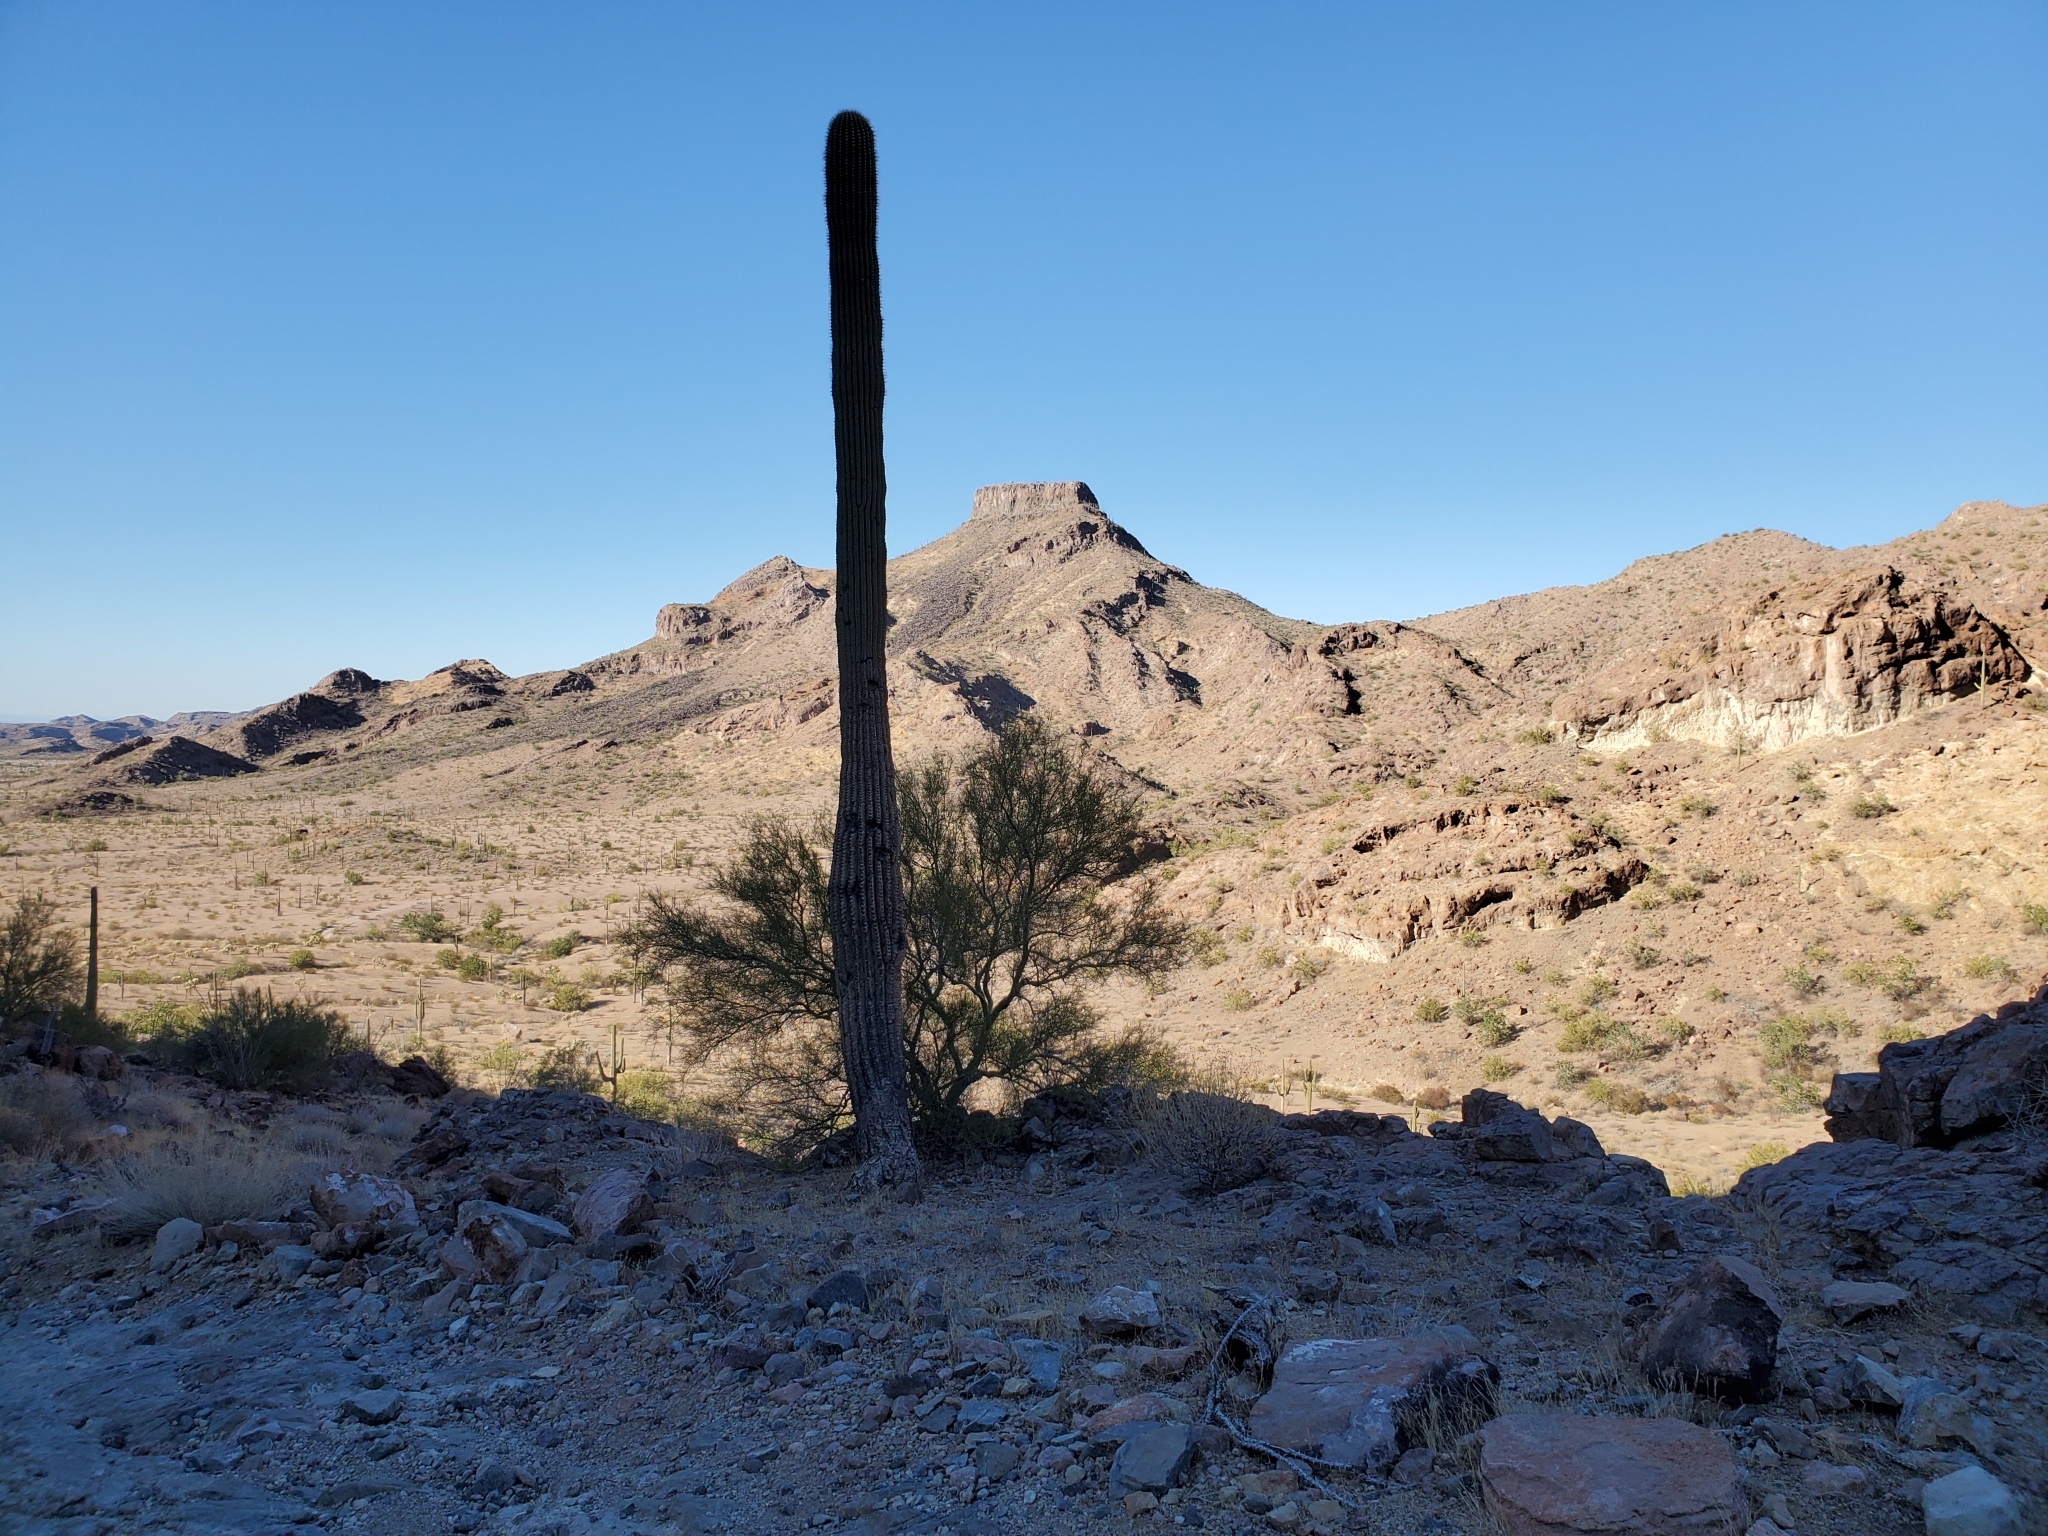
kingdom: Plantae
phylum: Tracheophyta
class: Magnoliopsida
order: Caryophyllales
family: Cactaceae
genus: Carnegiea
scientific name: Carnegiea gigantea
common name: Saguaro
